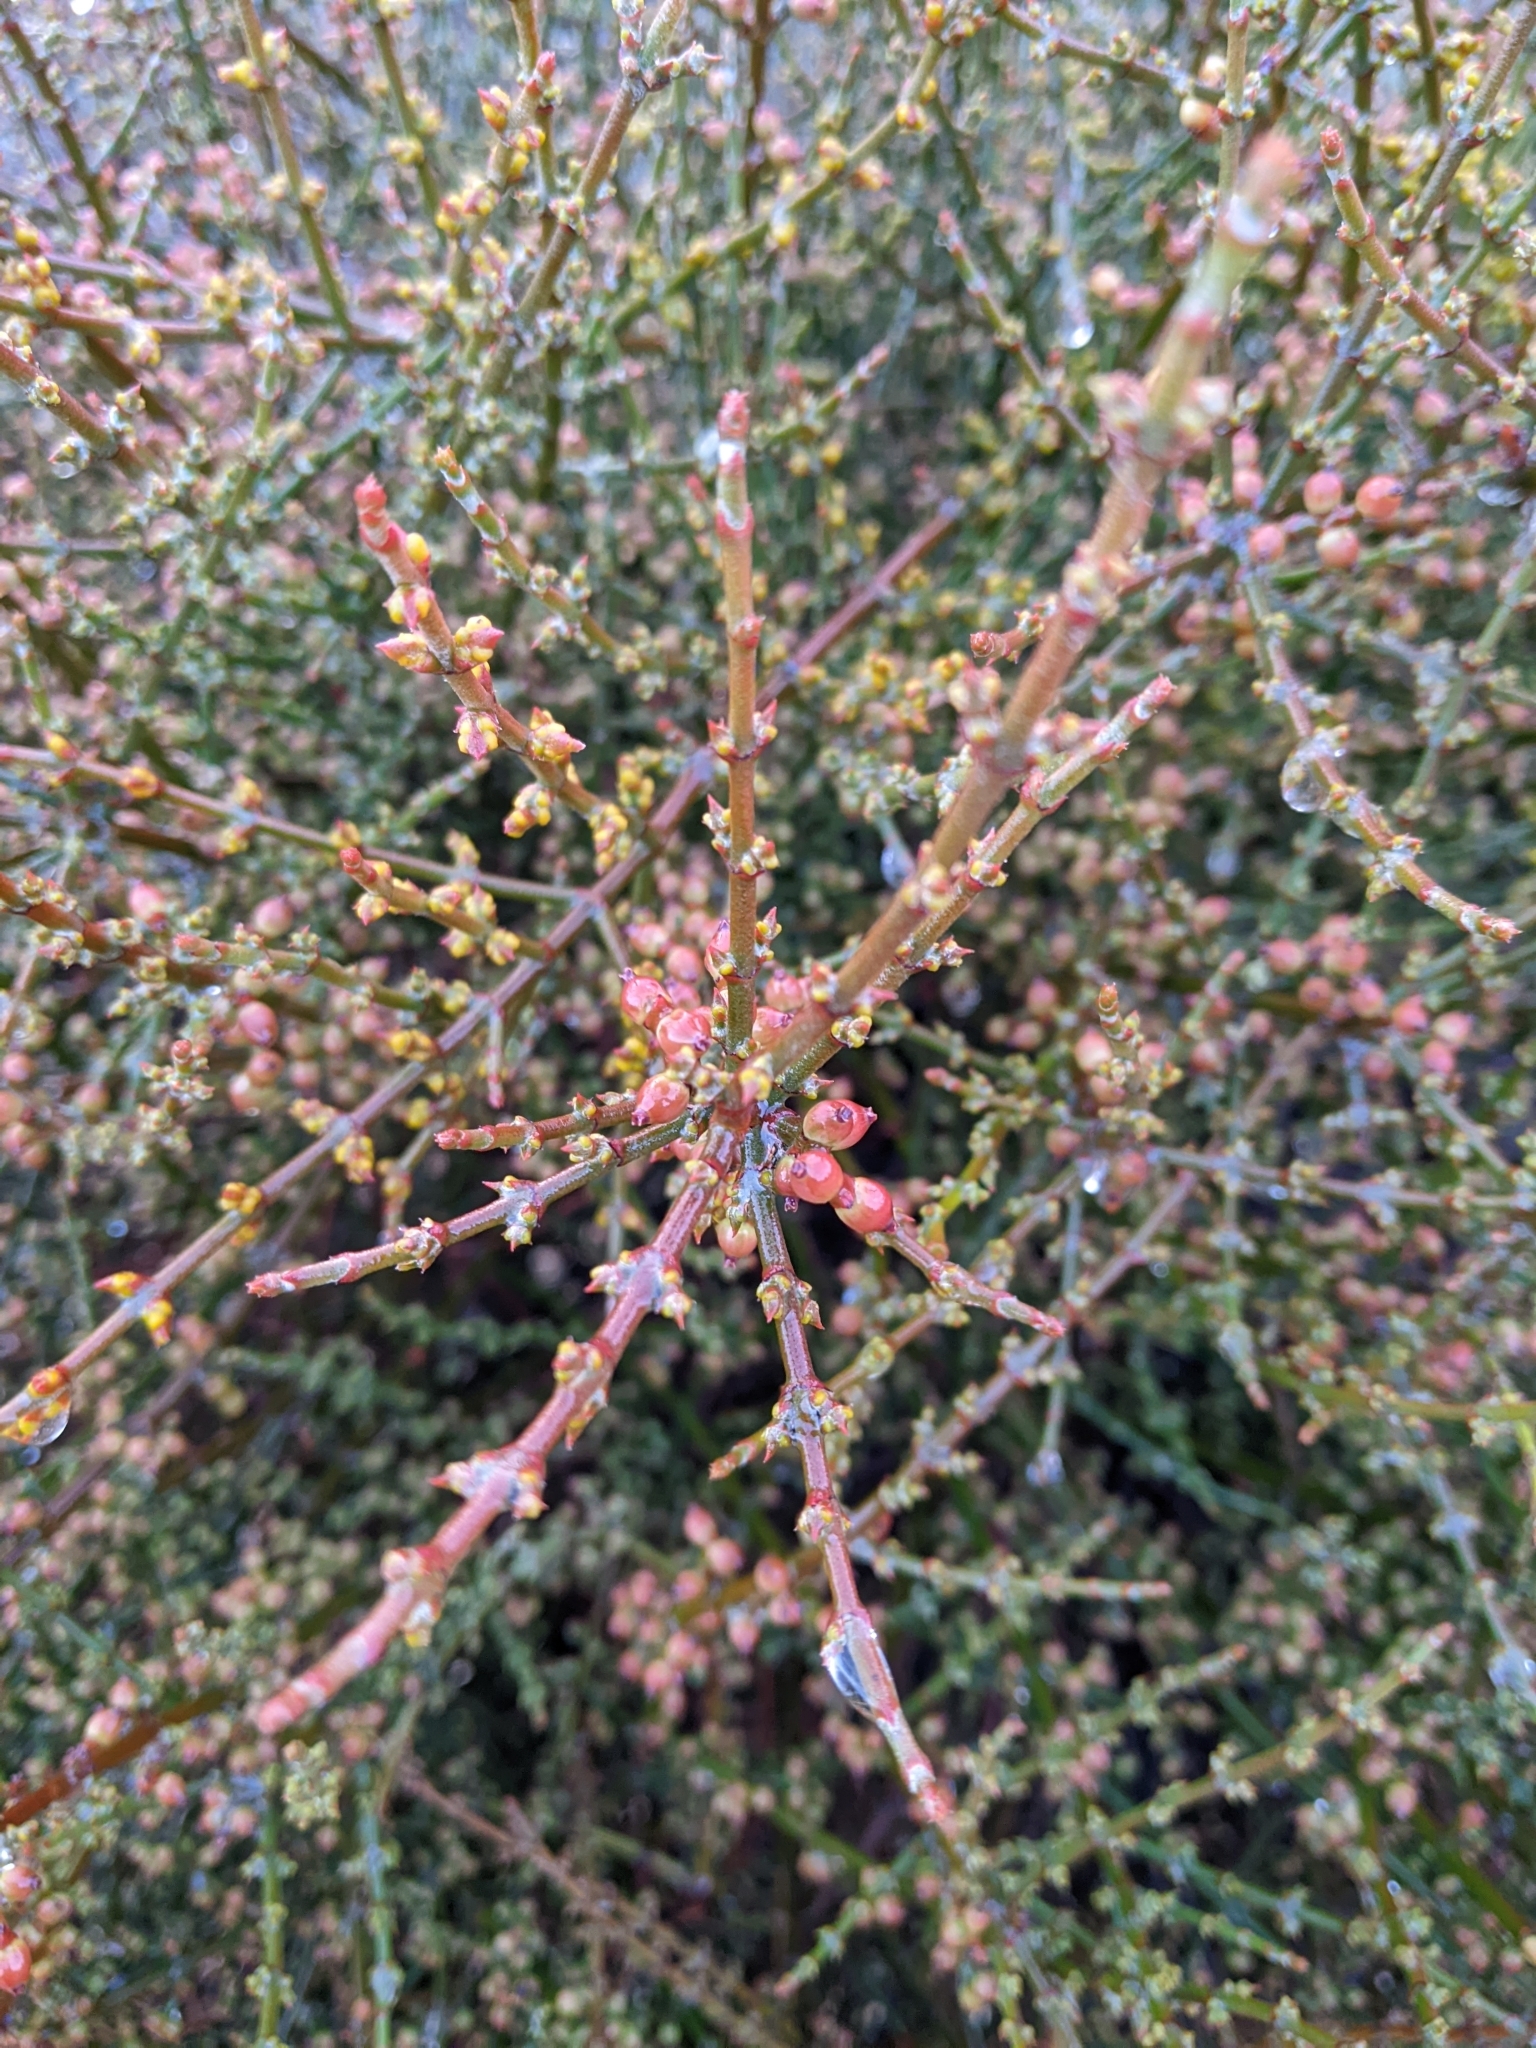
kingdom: Plantae
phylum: Tracheophyta
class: Magnoliopsida
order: Santalales
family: Viscaceae
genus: Phoradendron
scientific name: Phoradendron californicum
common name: Acacia mistletoe
